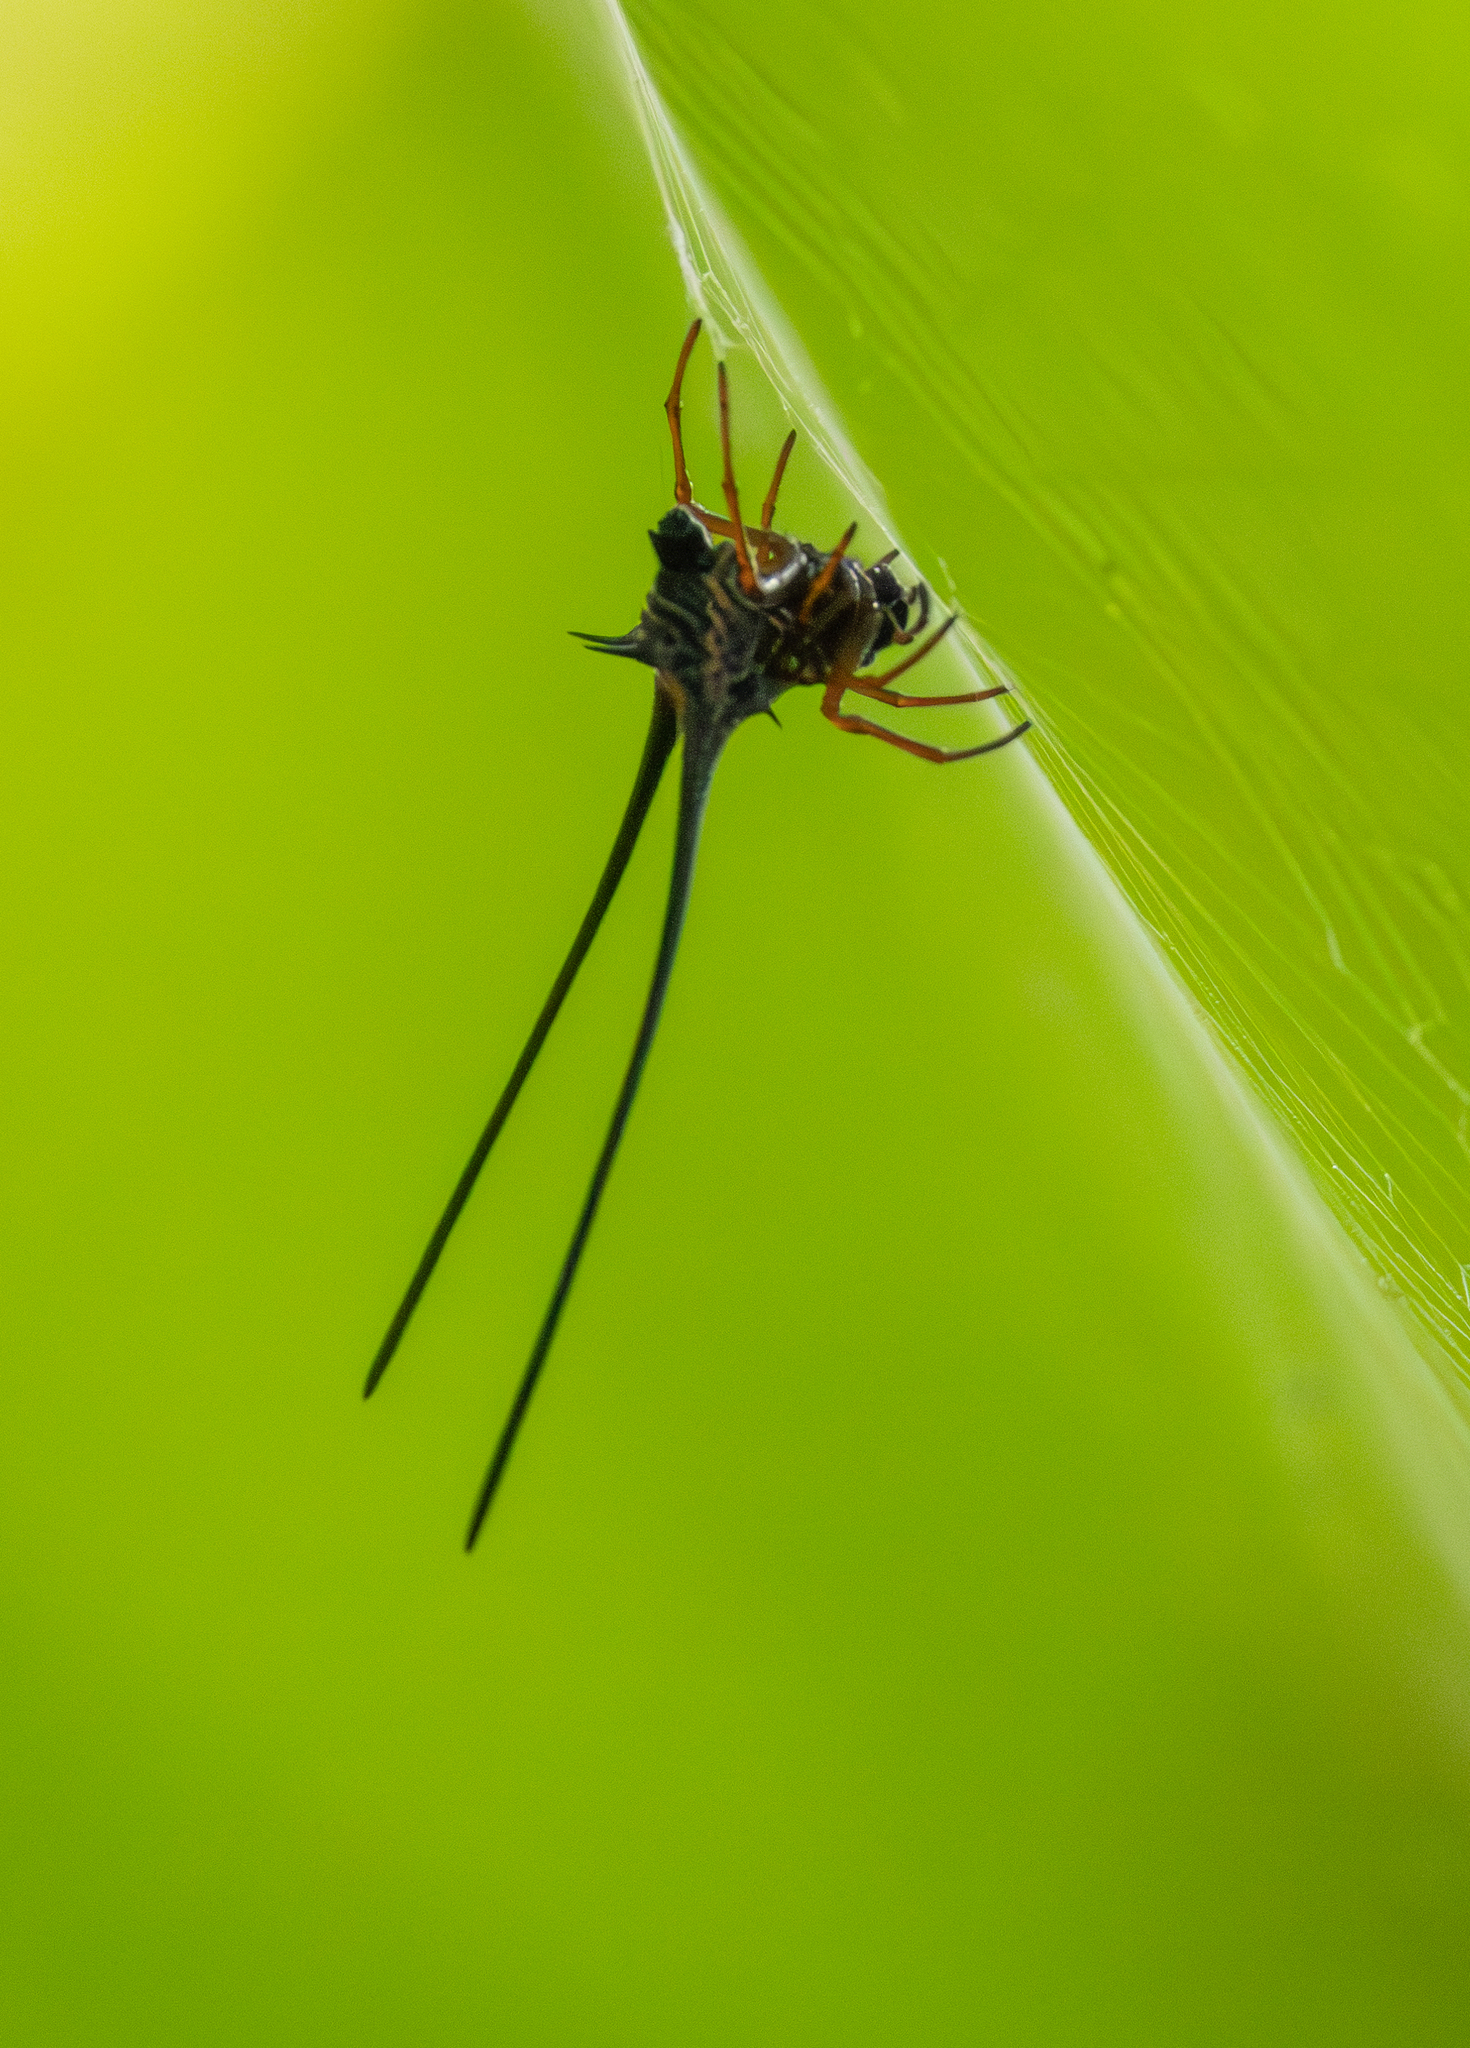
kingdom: Animalia
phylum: Arthropoda
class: Arachnida
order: Araneae
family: Araneidae
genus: Macracantha
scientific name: Macracantha arcuata
